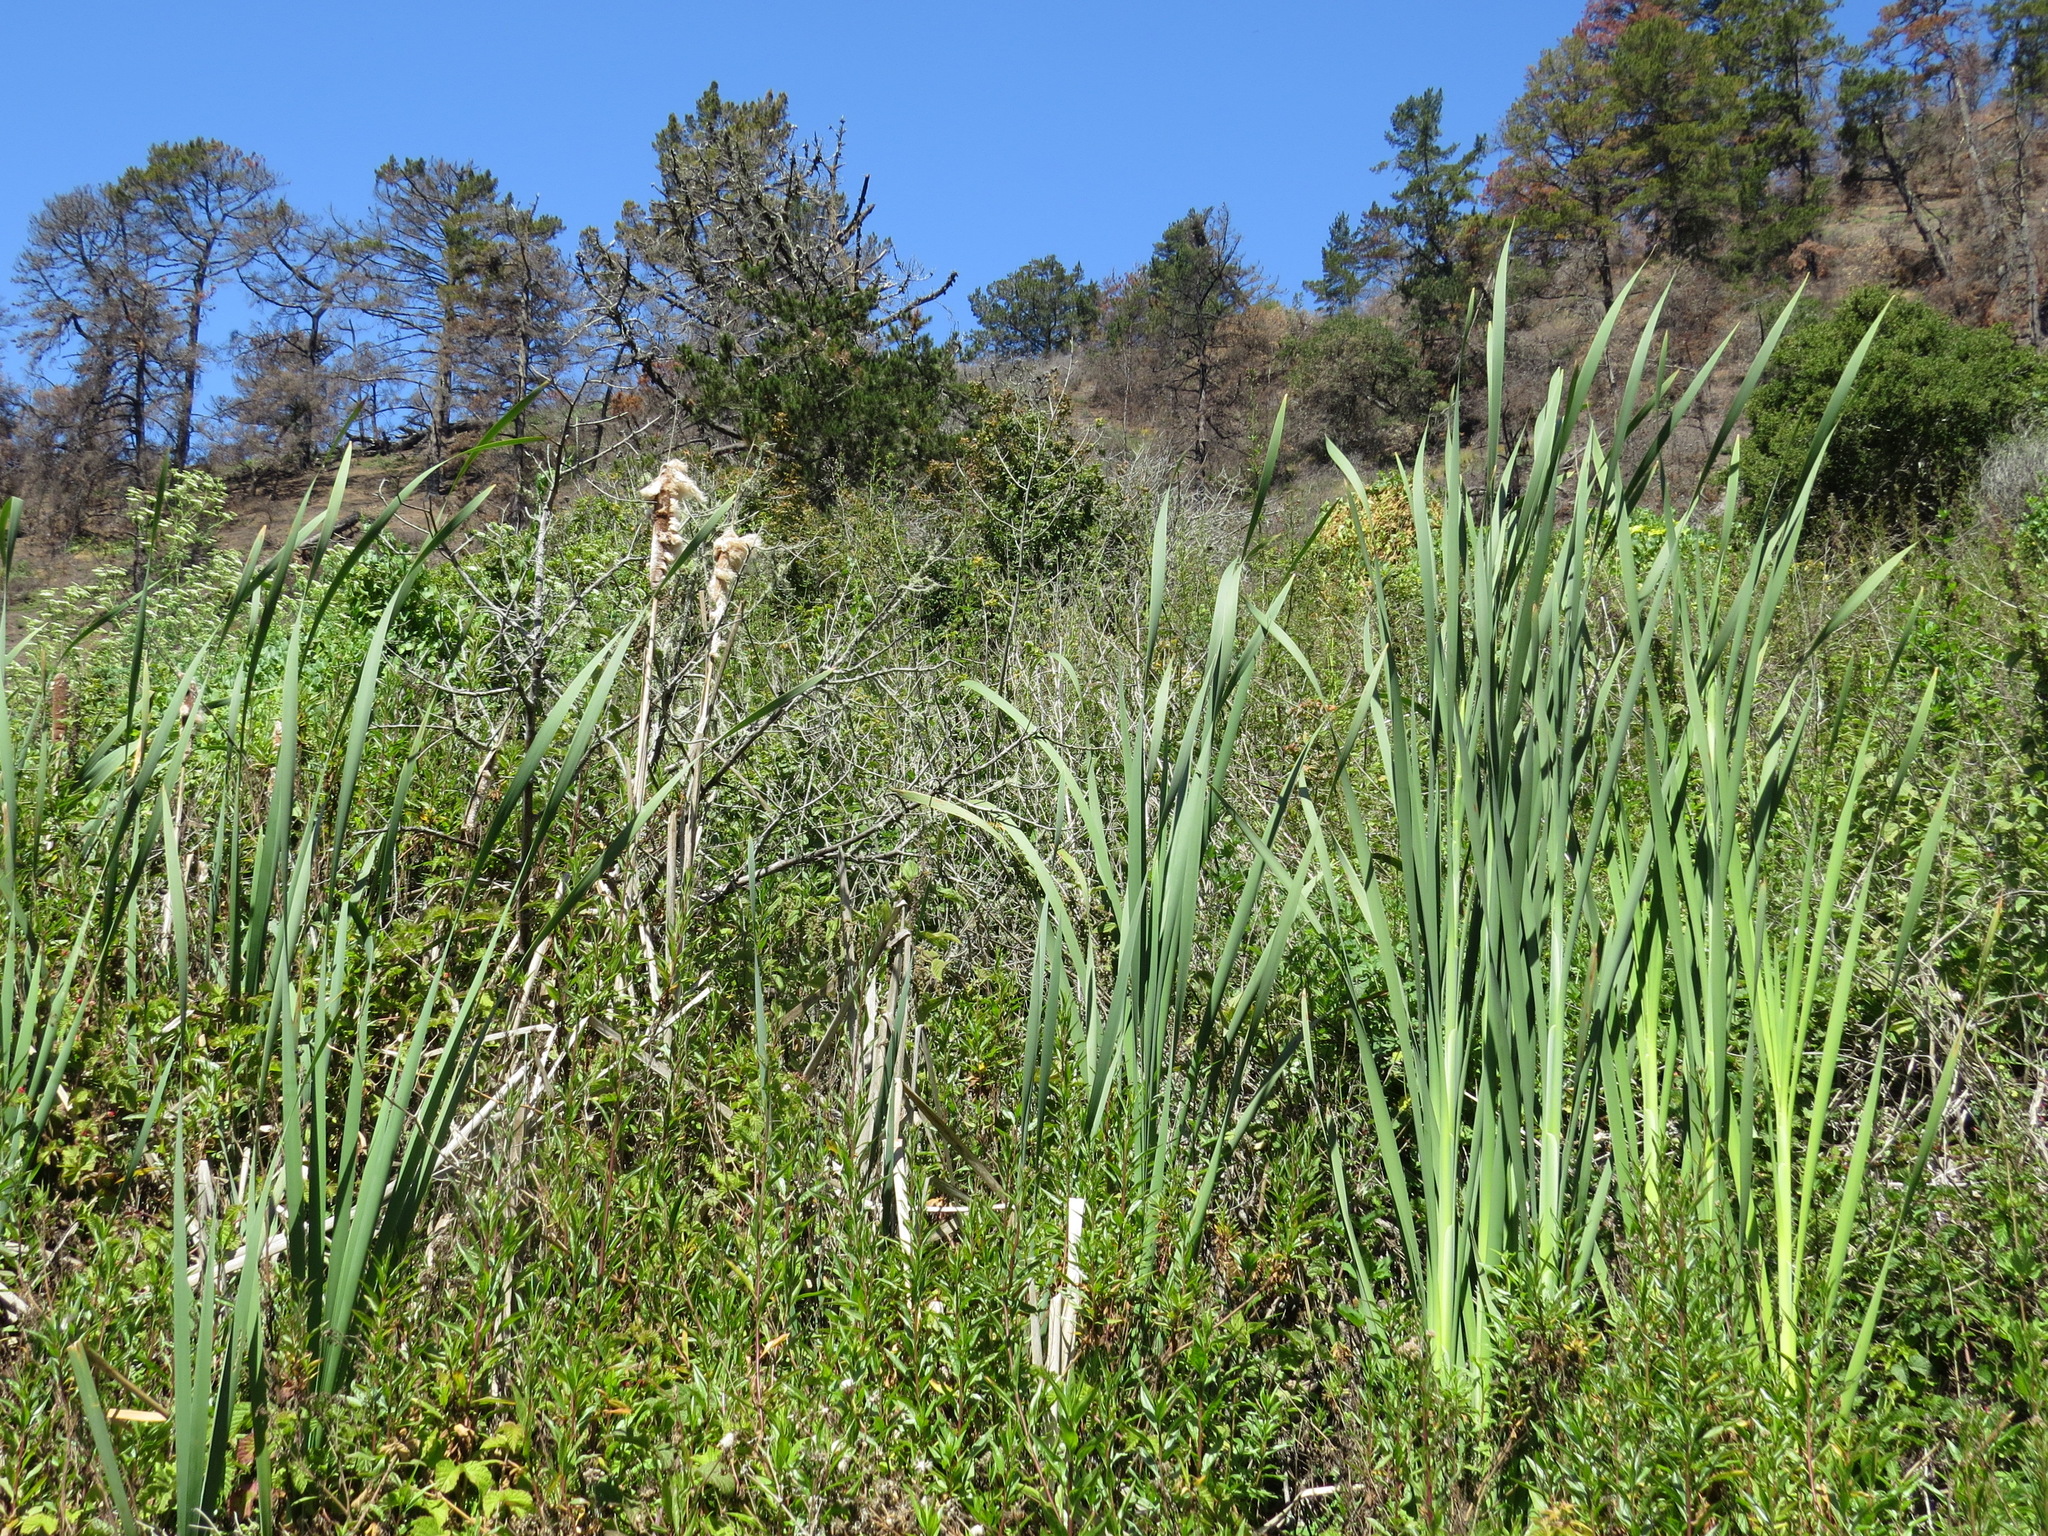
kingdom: Plantae
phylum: Tracheophyta
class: Liliopsida
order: Poales
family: Typhaceae
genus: Typha
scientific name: Typha latifolia
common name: Broadleaf cattail
